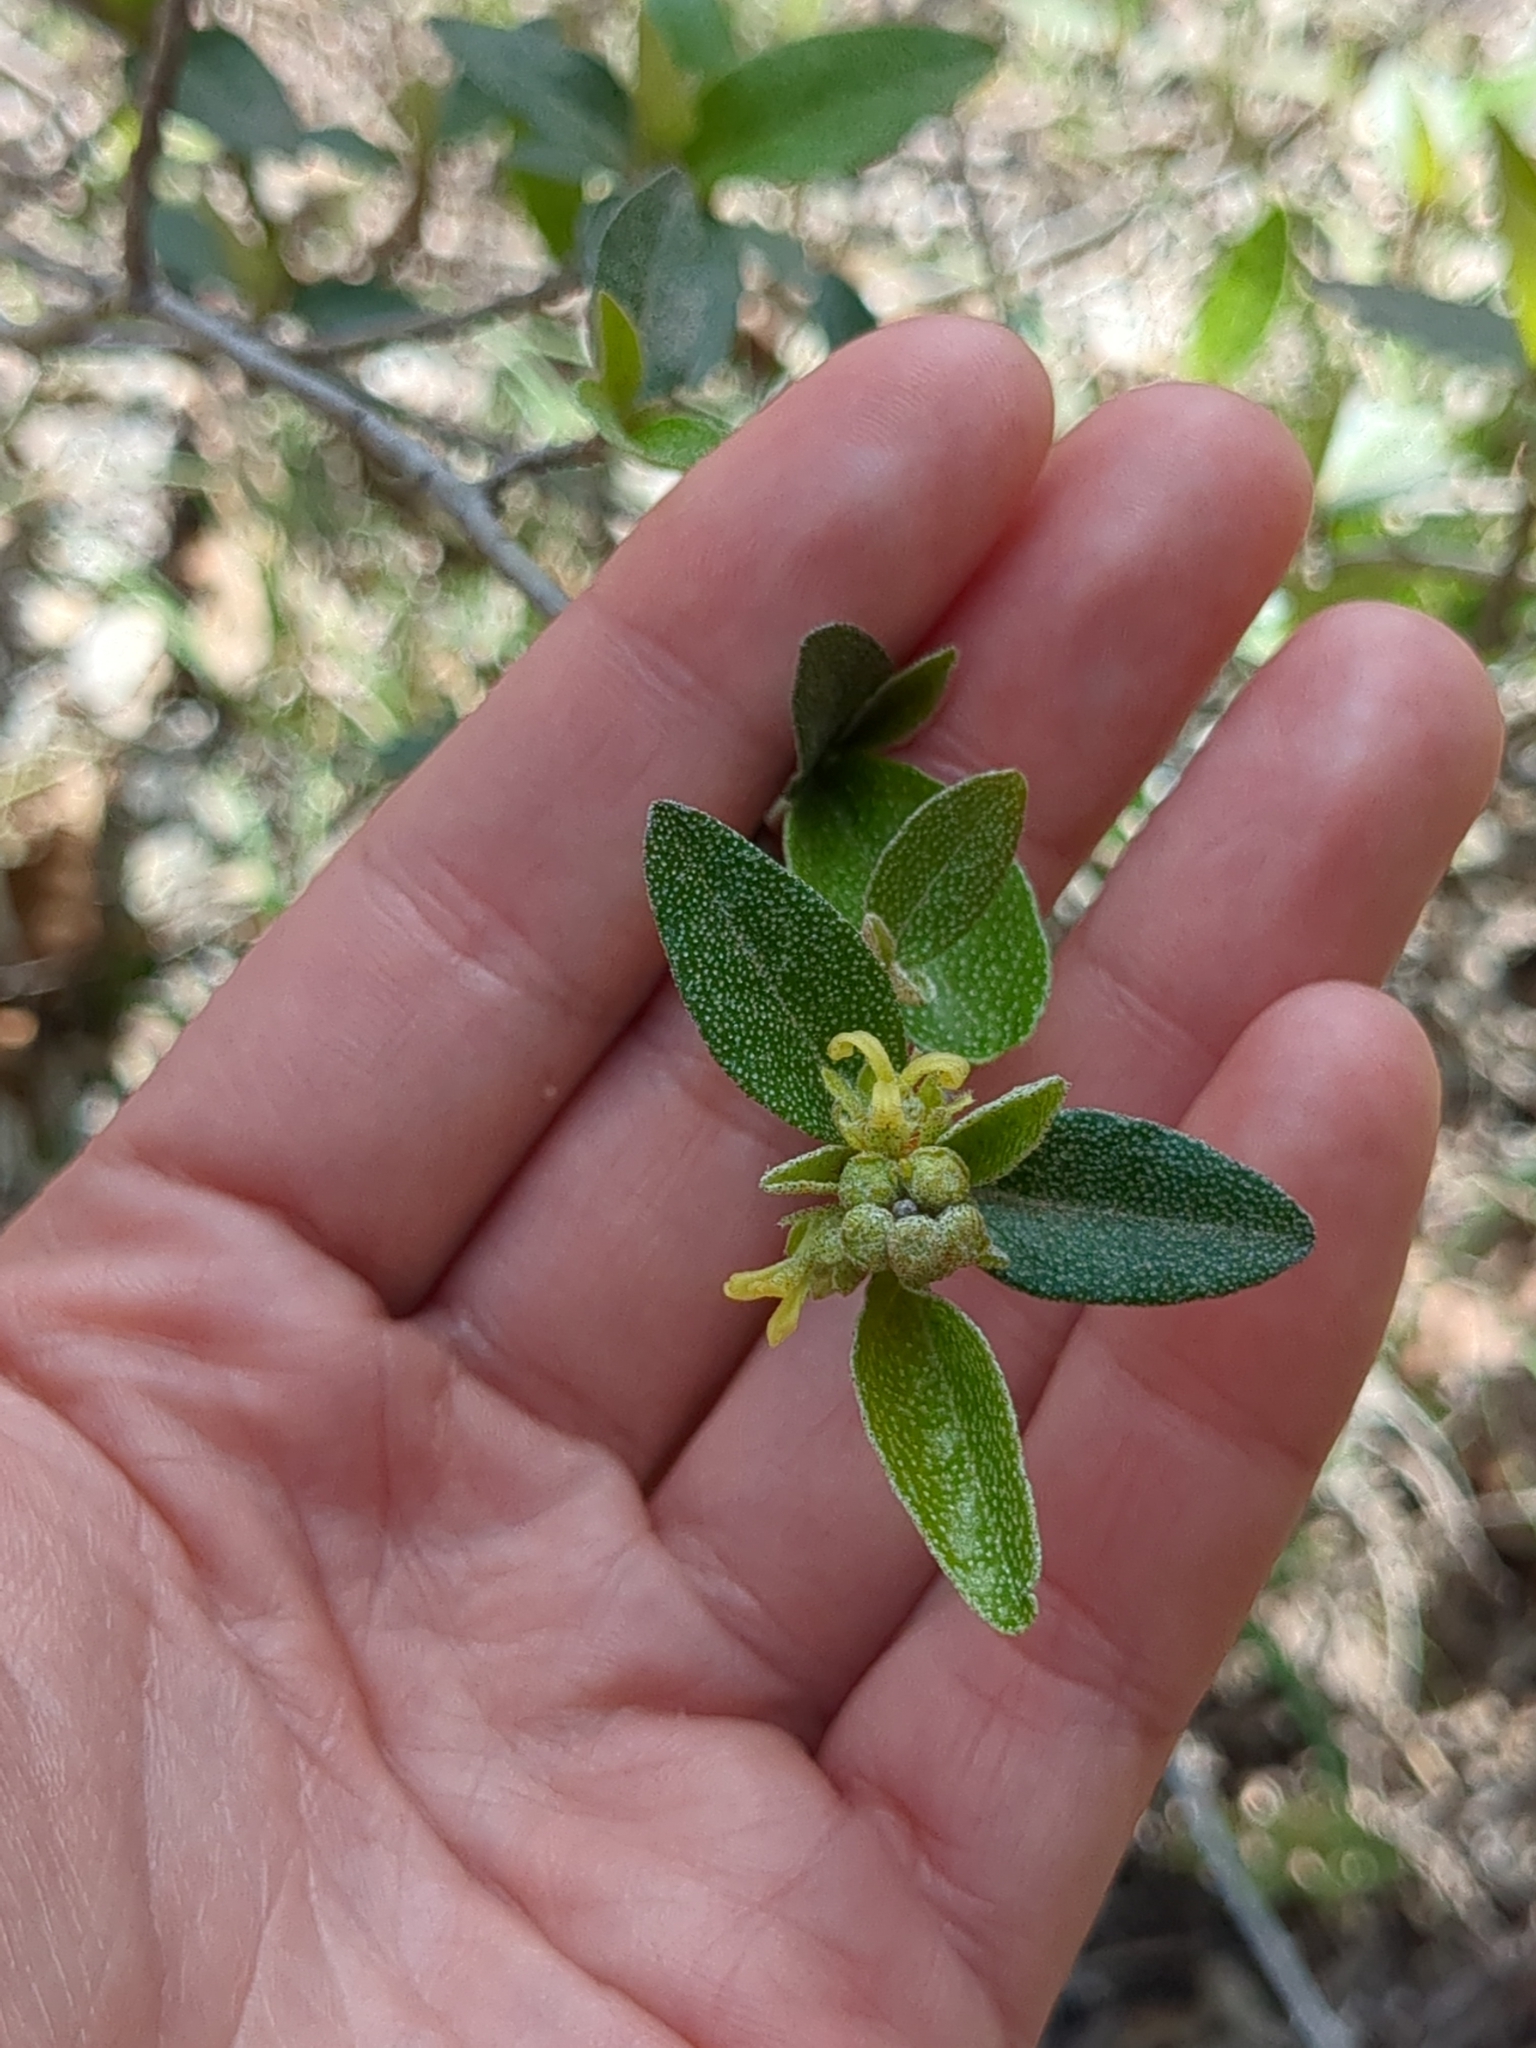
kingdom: Plantae
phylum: Tracheophyta
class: Magnoliopsida
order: Malpighiales
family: Euphorbiaceae
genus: Croton
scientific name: Croton alabamensis
